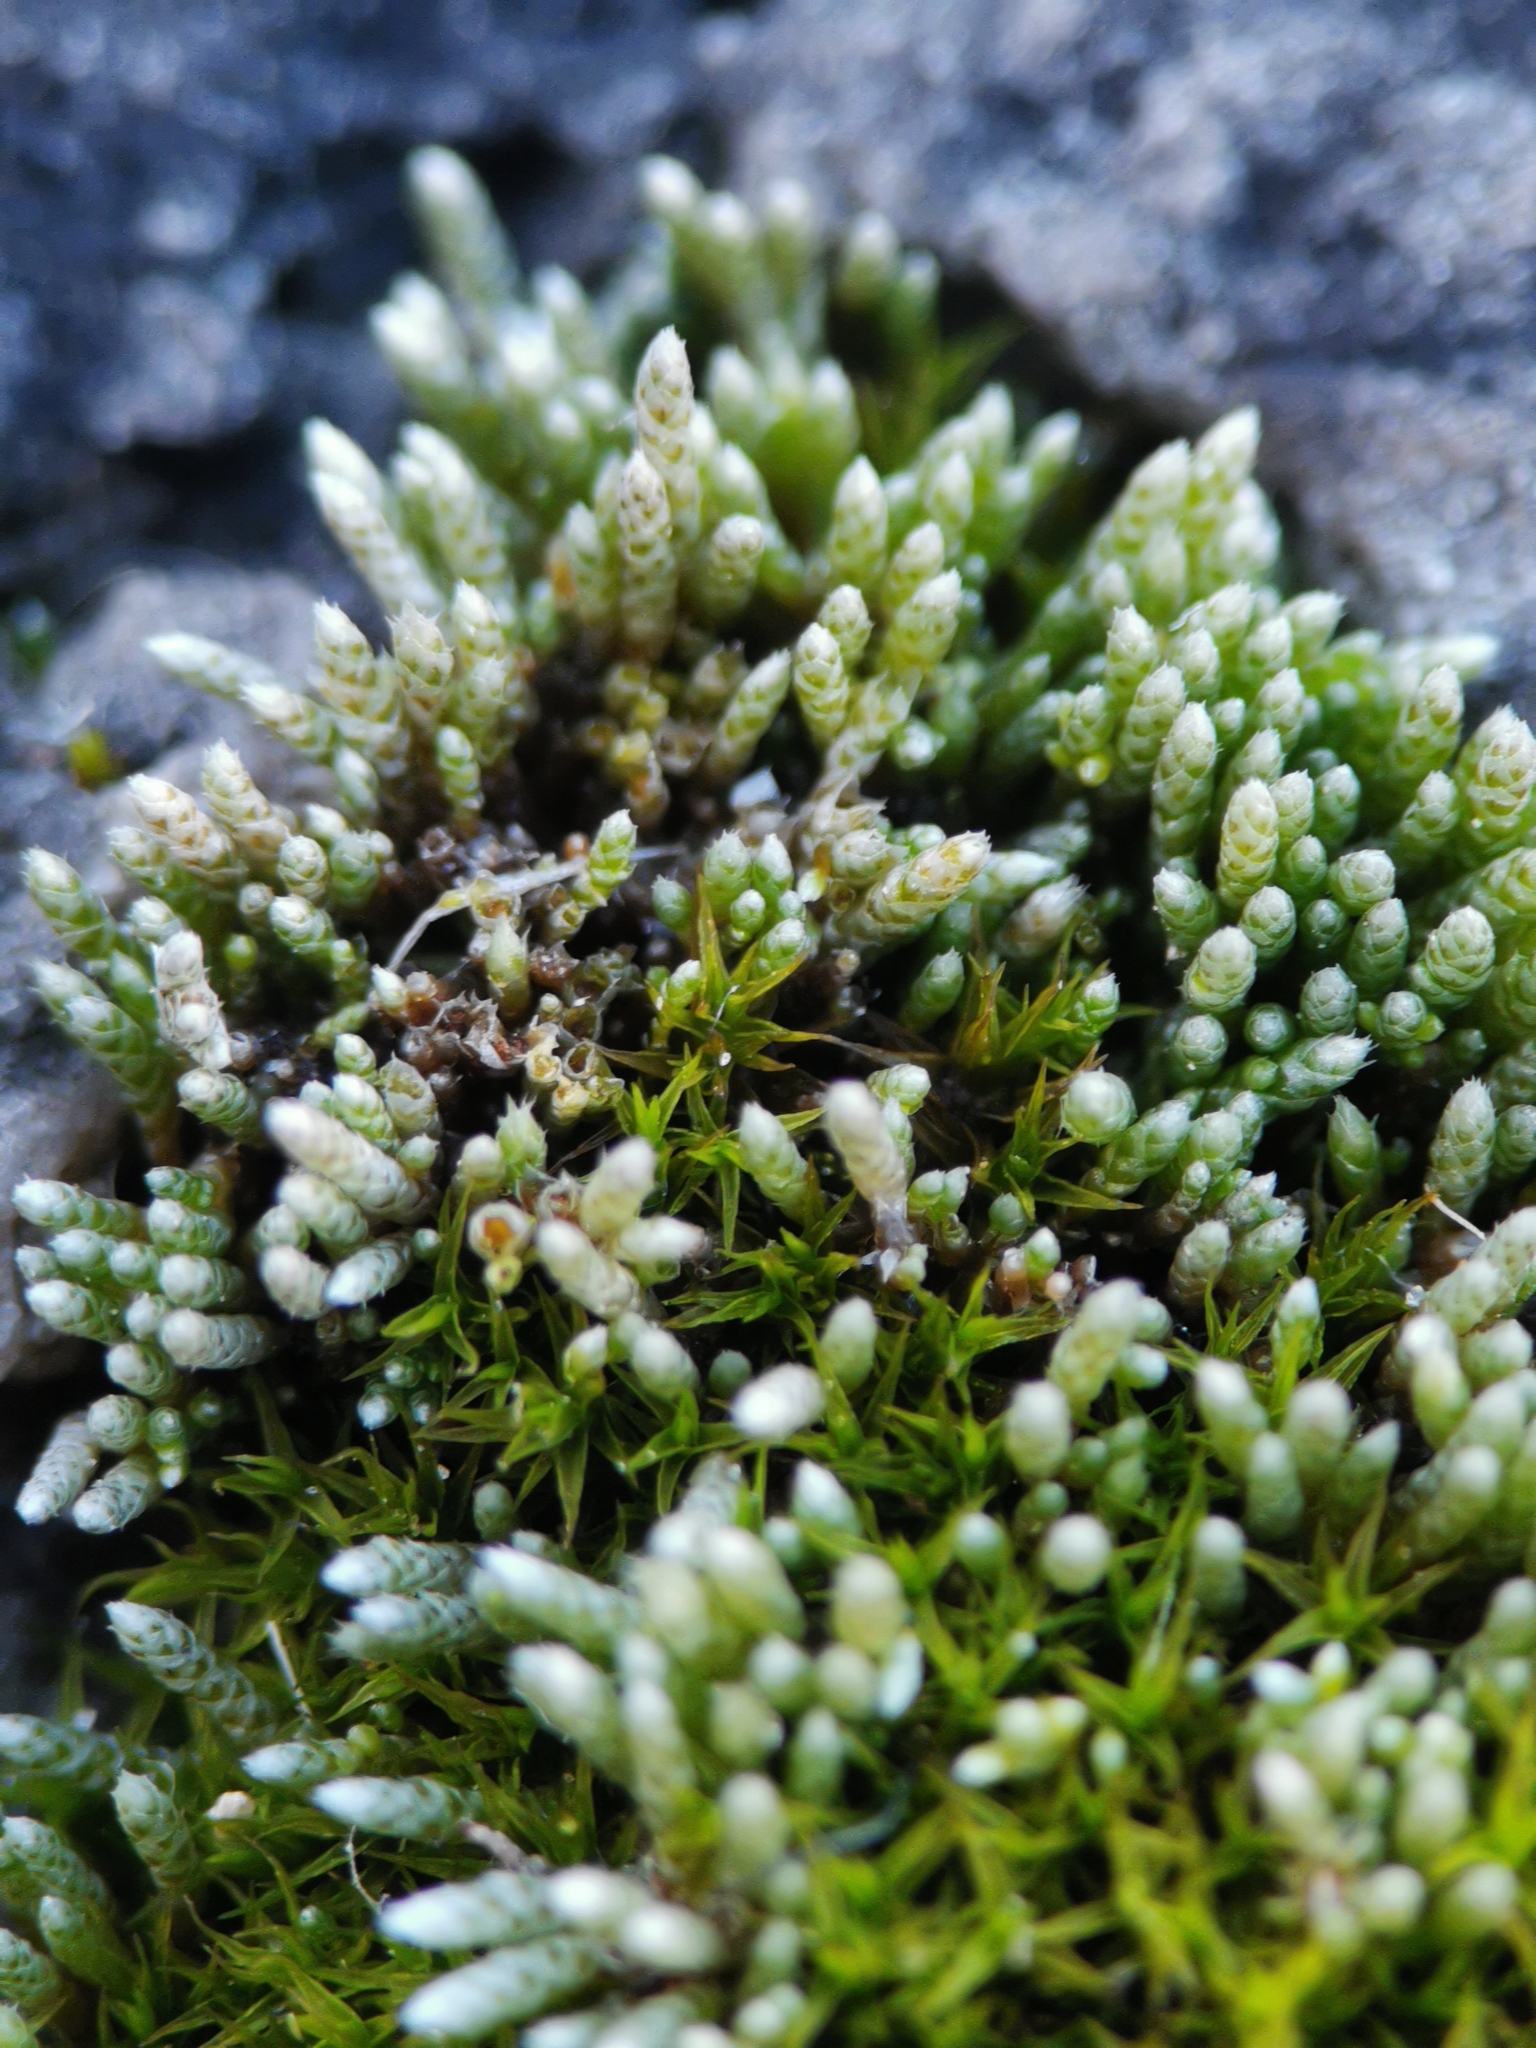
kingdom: Plantae
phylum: Bryophyta
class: Bryopsida
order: Bryales
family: Bryaceae
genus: Bryum
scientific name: Bryum argenteum
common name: Silver-moss
